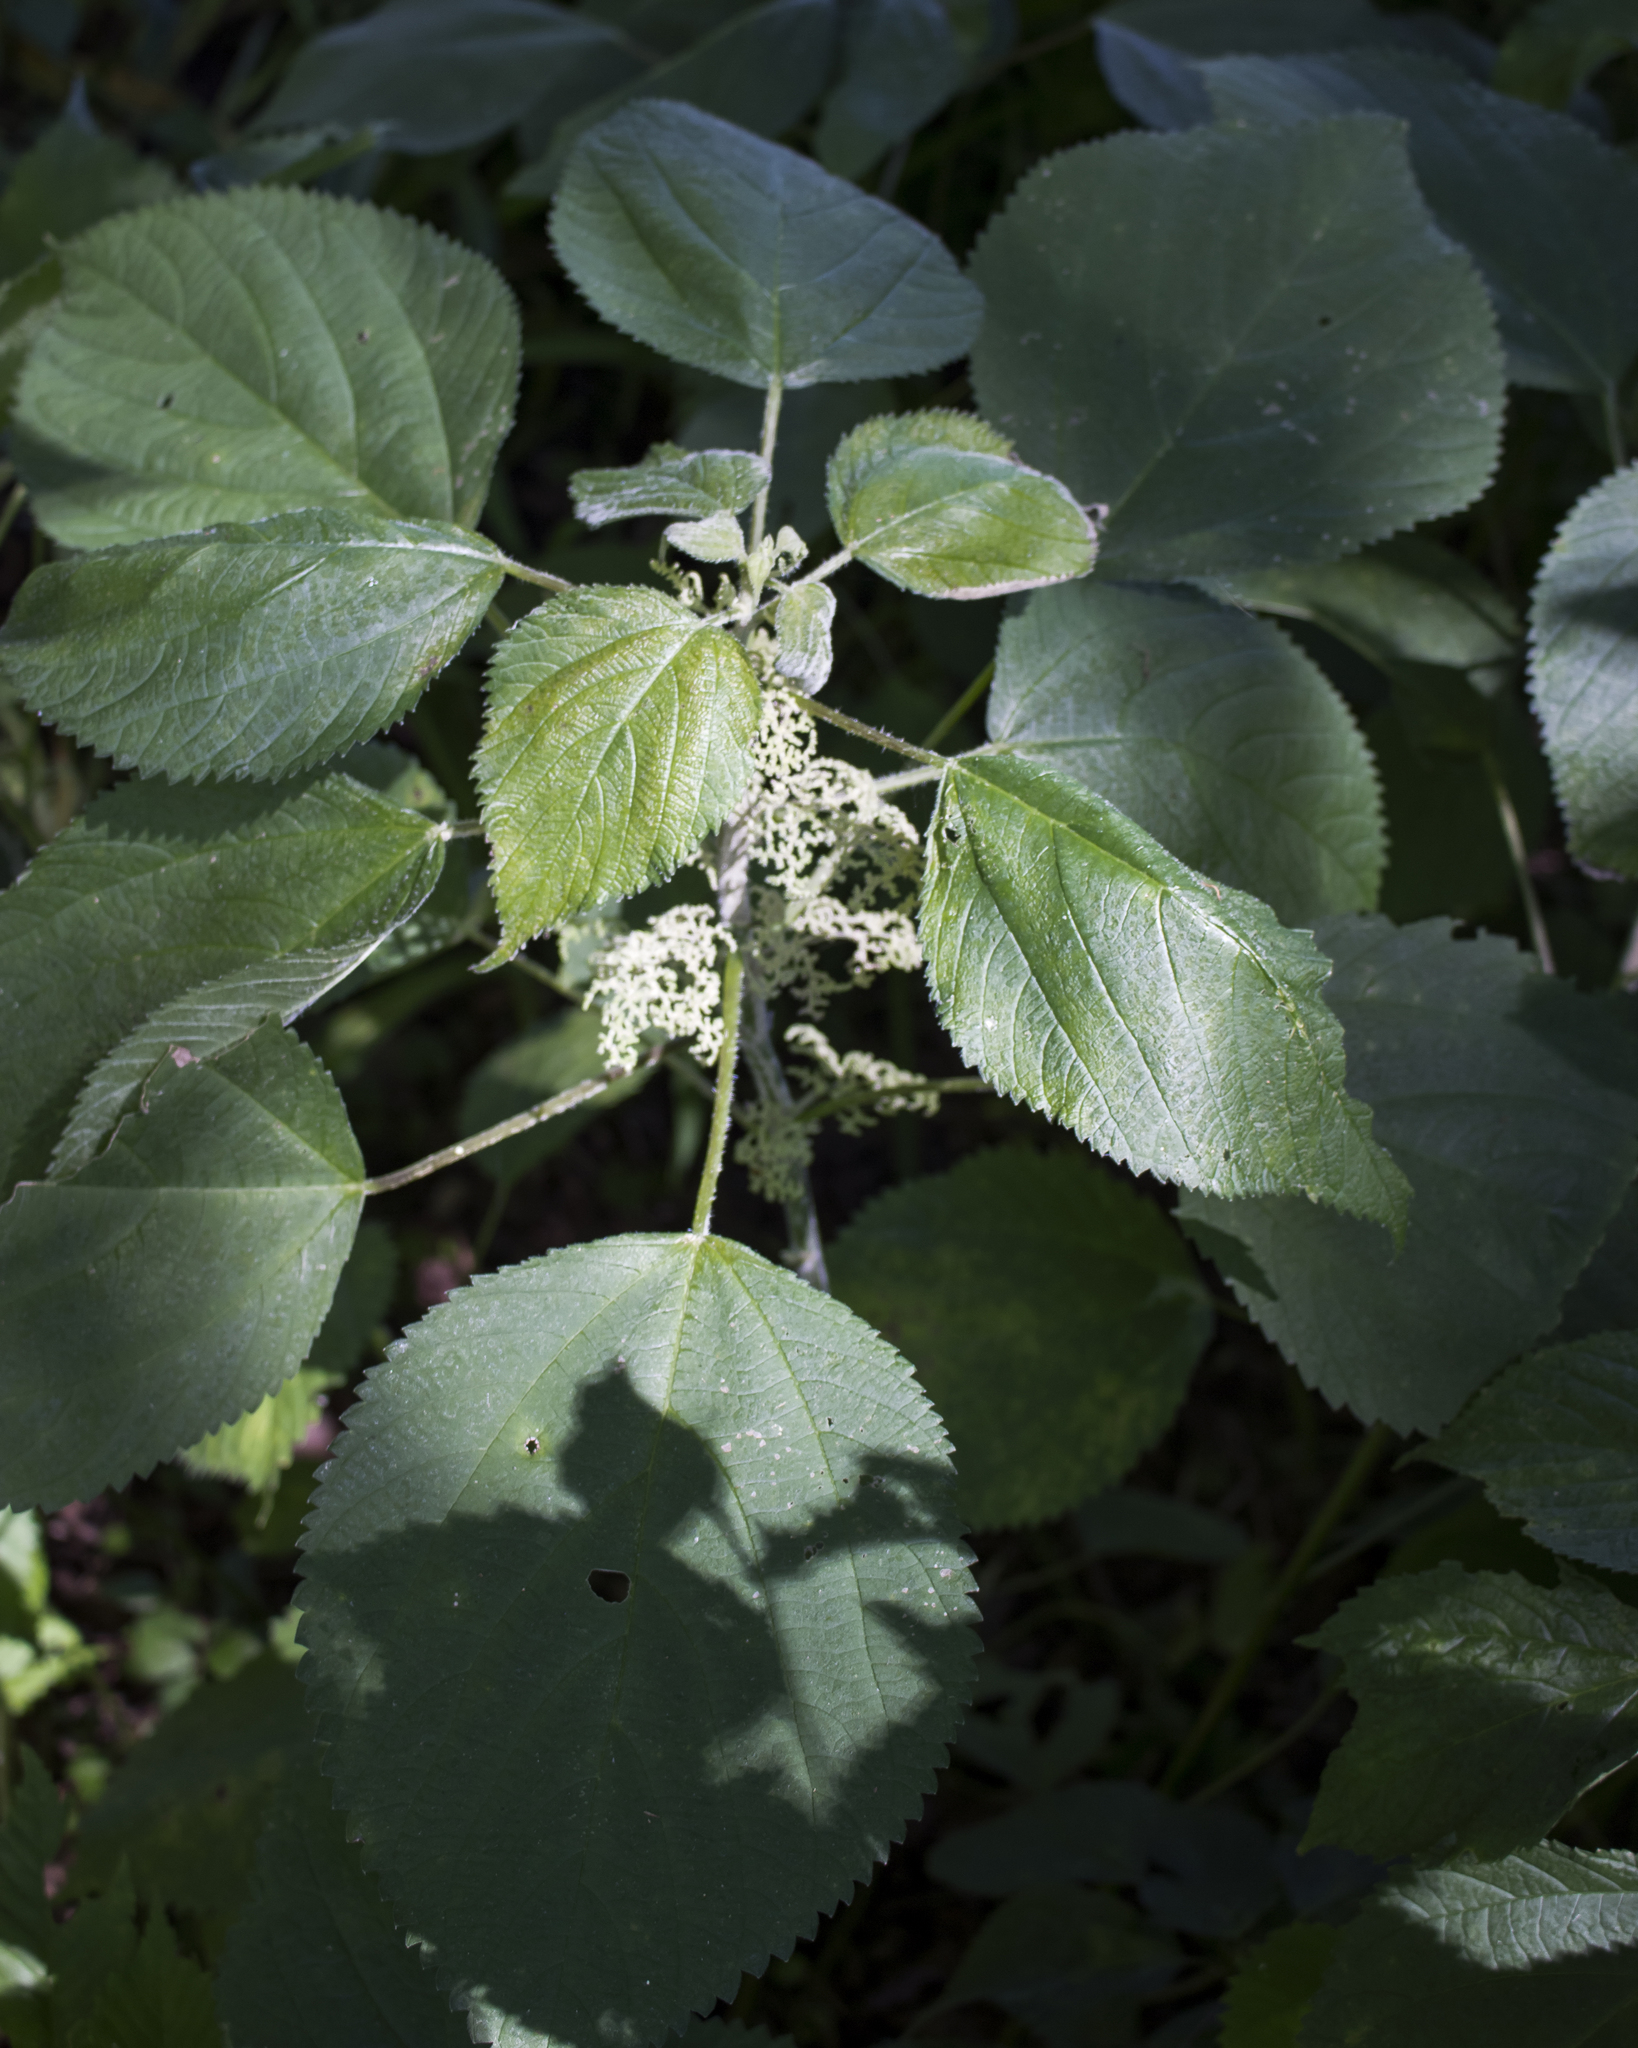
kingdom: Plantae
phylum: Tracheophyta
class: Magnoliopsida
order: Rosales
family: Urticaceae
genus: Laportea
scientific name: Laportea canadensis
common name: Canada nettle
